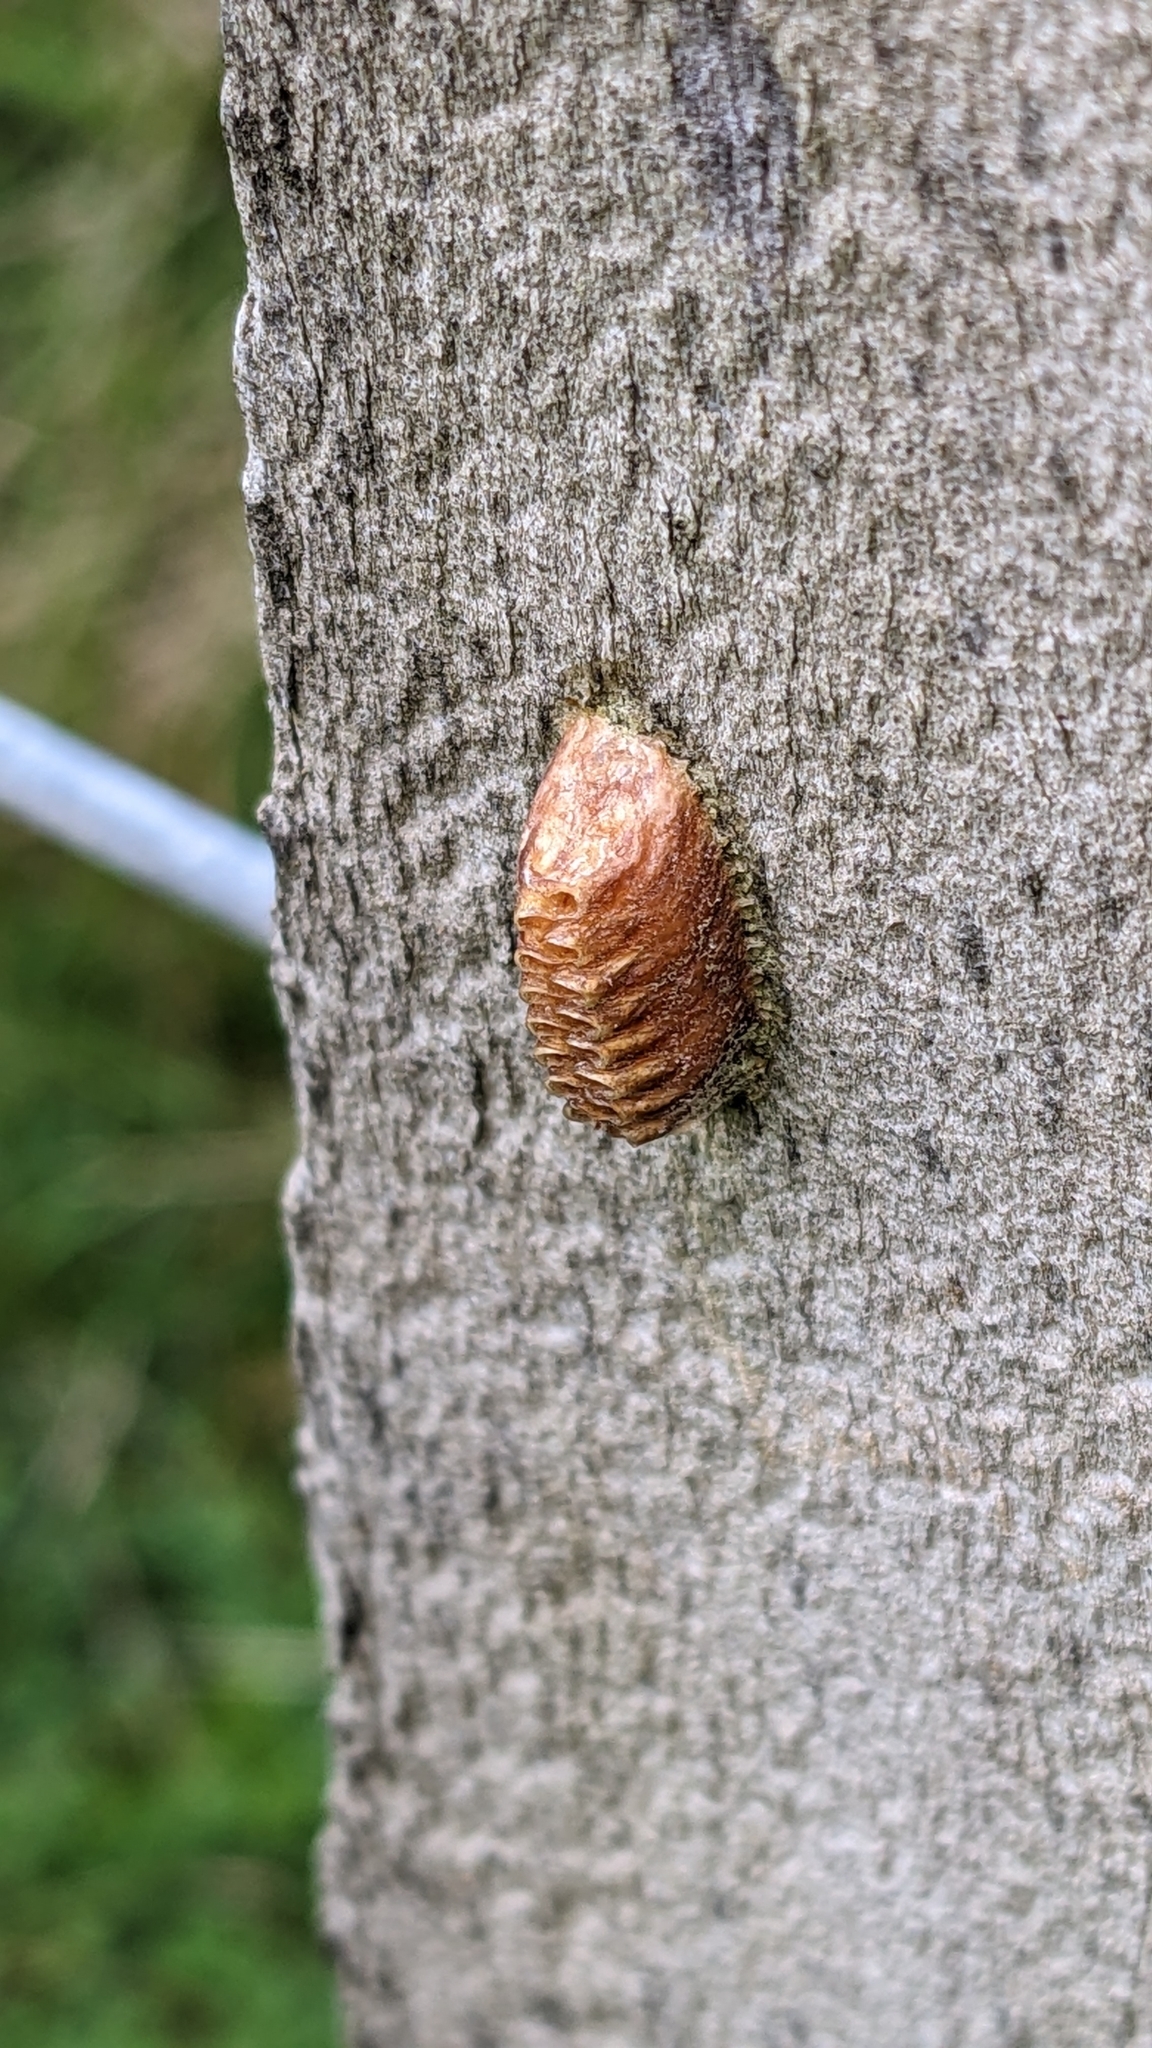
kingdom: Animalia
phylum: Arthropoda
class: Insecta
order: Mantodea
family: Mantidae
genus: Orthodera
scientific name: Orthodera novaezealandiae
